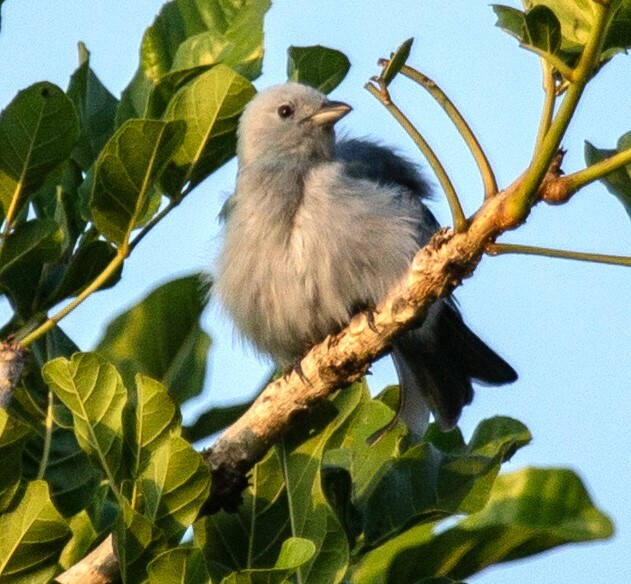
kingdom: Animalia
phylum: Chordata
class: Aves
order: Passeriformes
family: Thraupidae
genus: Thraupis
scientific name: Thraupis episcopus
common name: Blue-grey tanager
